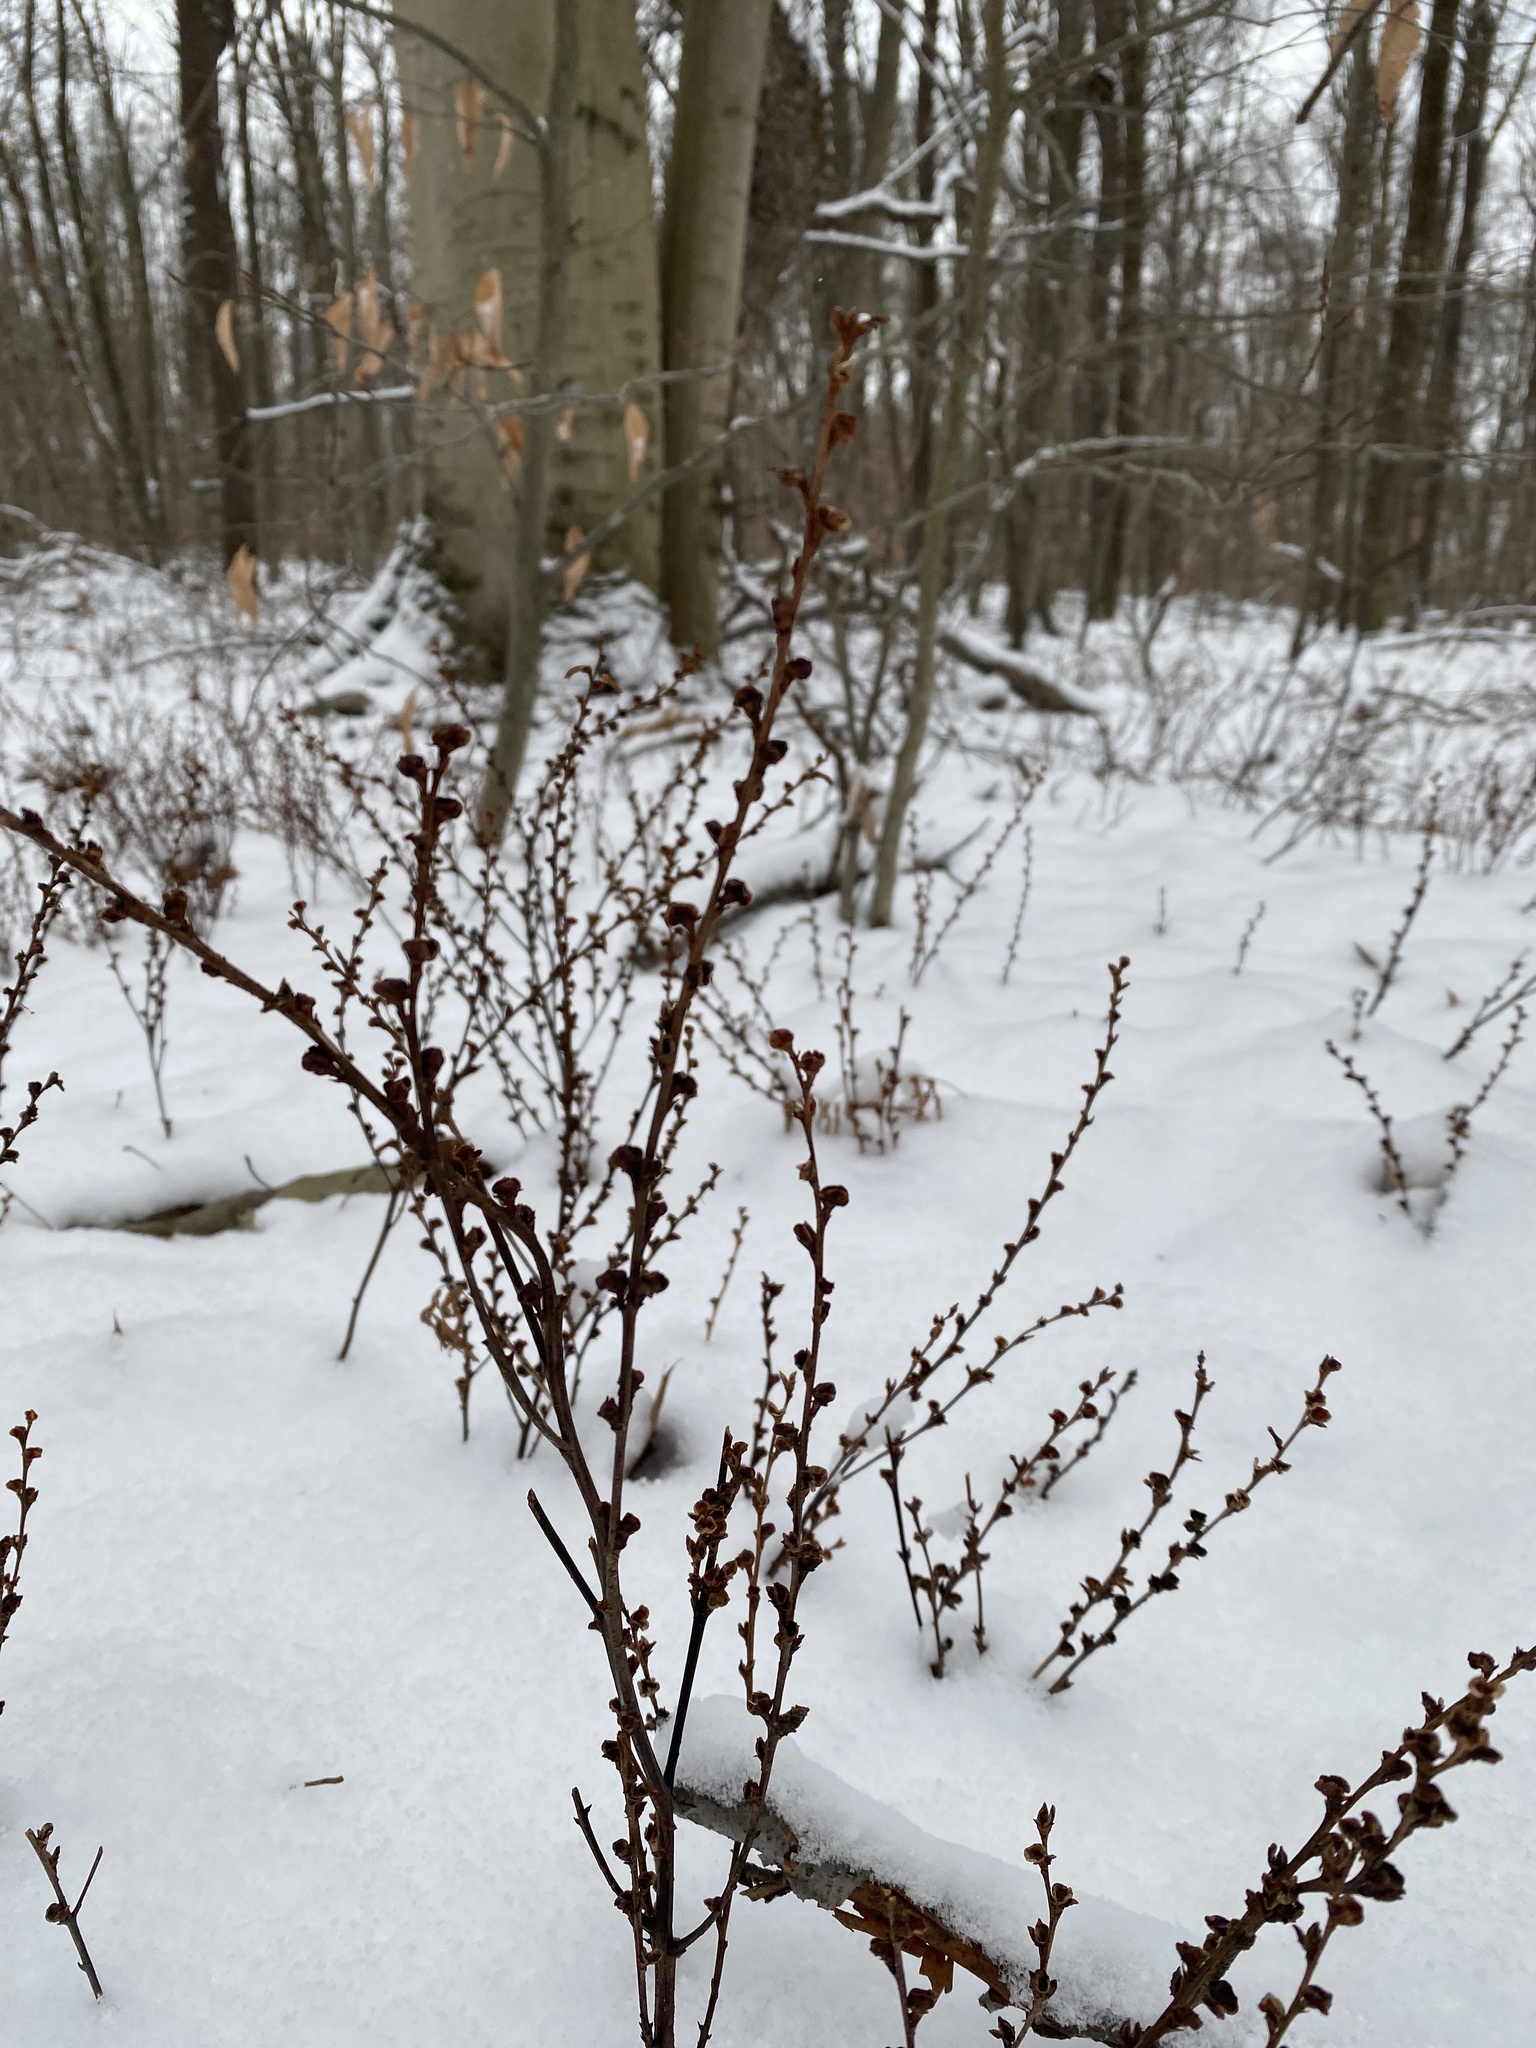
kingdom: Plantae
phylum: Tracheophyta
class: Magnoliopsida
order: Lamiales
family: Orobanchaceae
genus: Epifagus
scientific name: Epifagus virginiana
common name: Beechdrops
